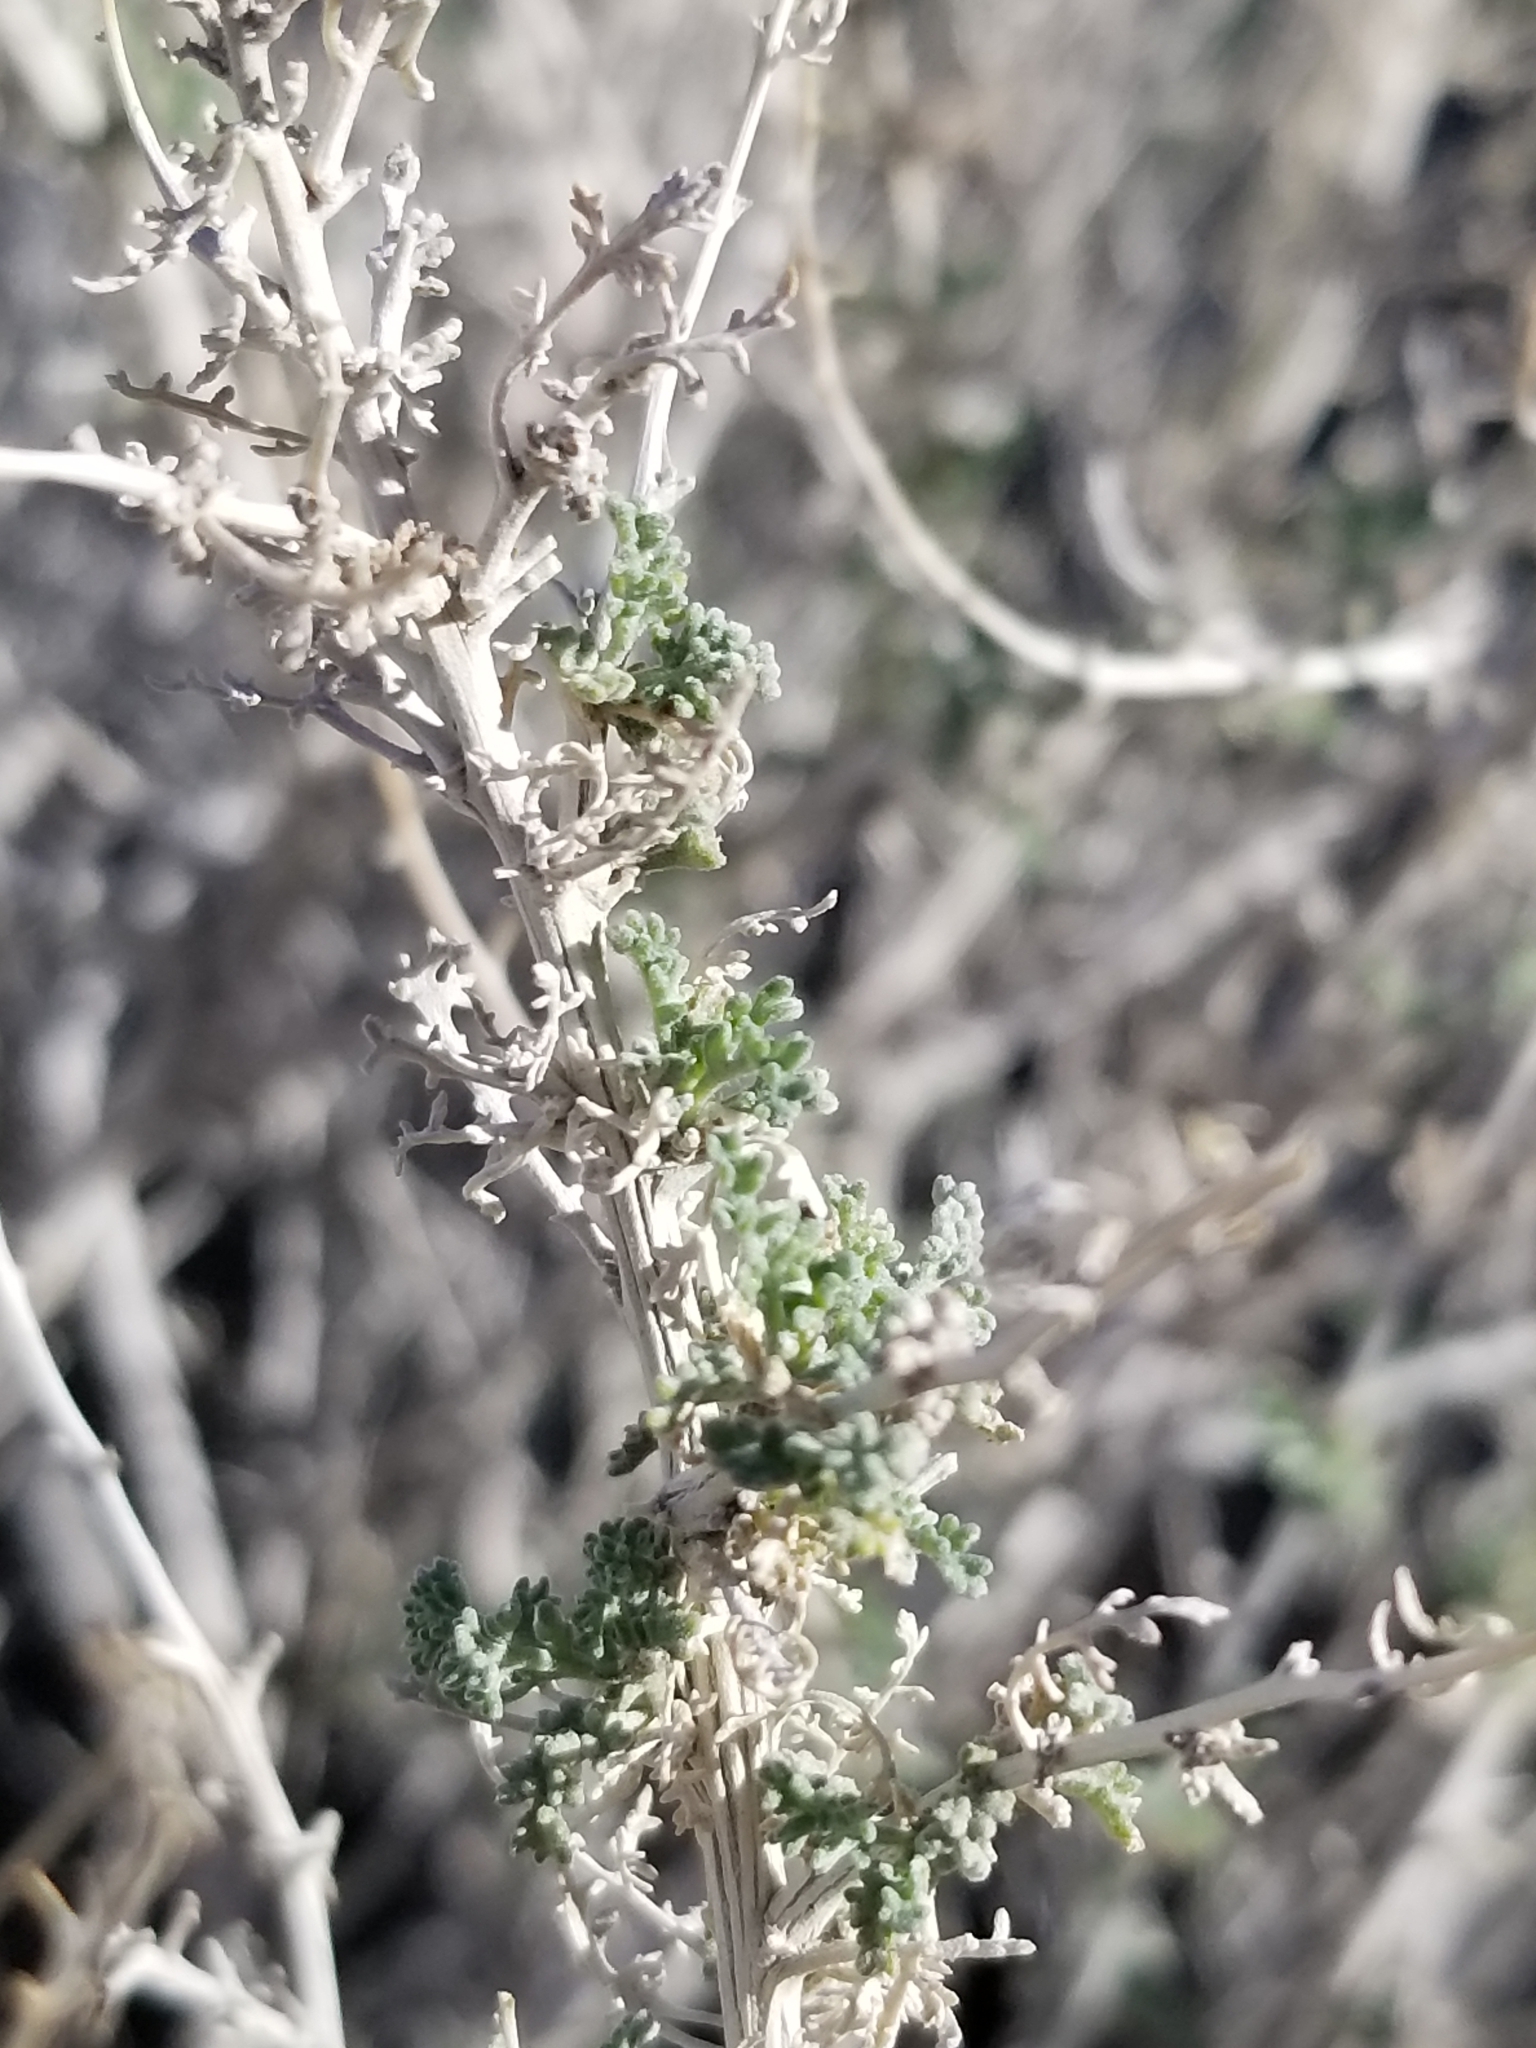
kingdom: Plantae
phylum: Tracheophyta
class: Magnoliopsida
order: Asterales
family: Asteraceae
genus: Ambrosia
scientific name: Ambrosia dumosa
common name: Bur-sage
